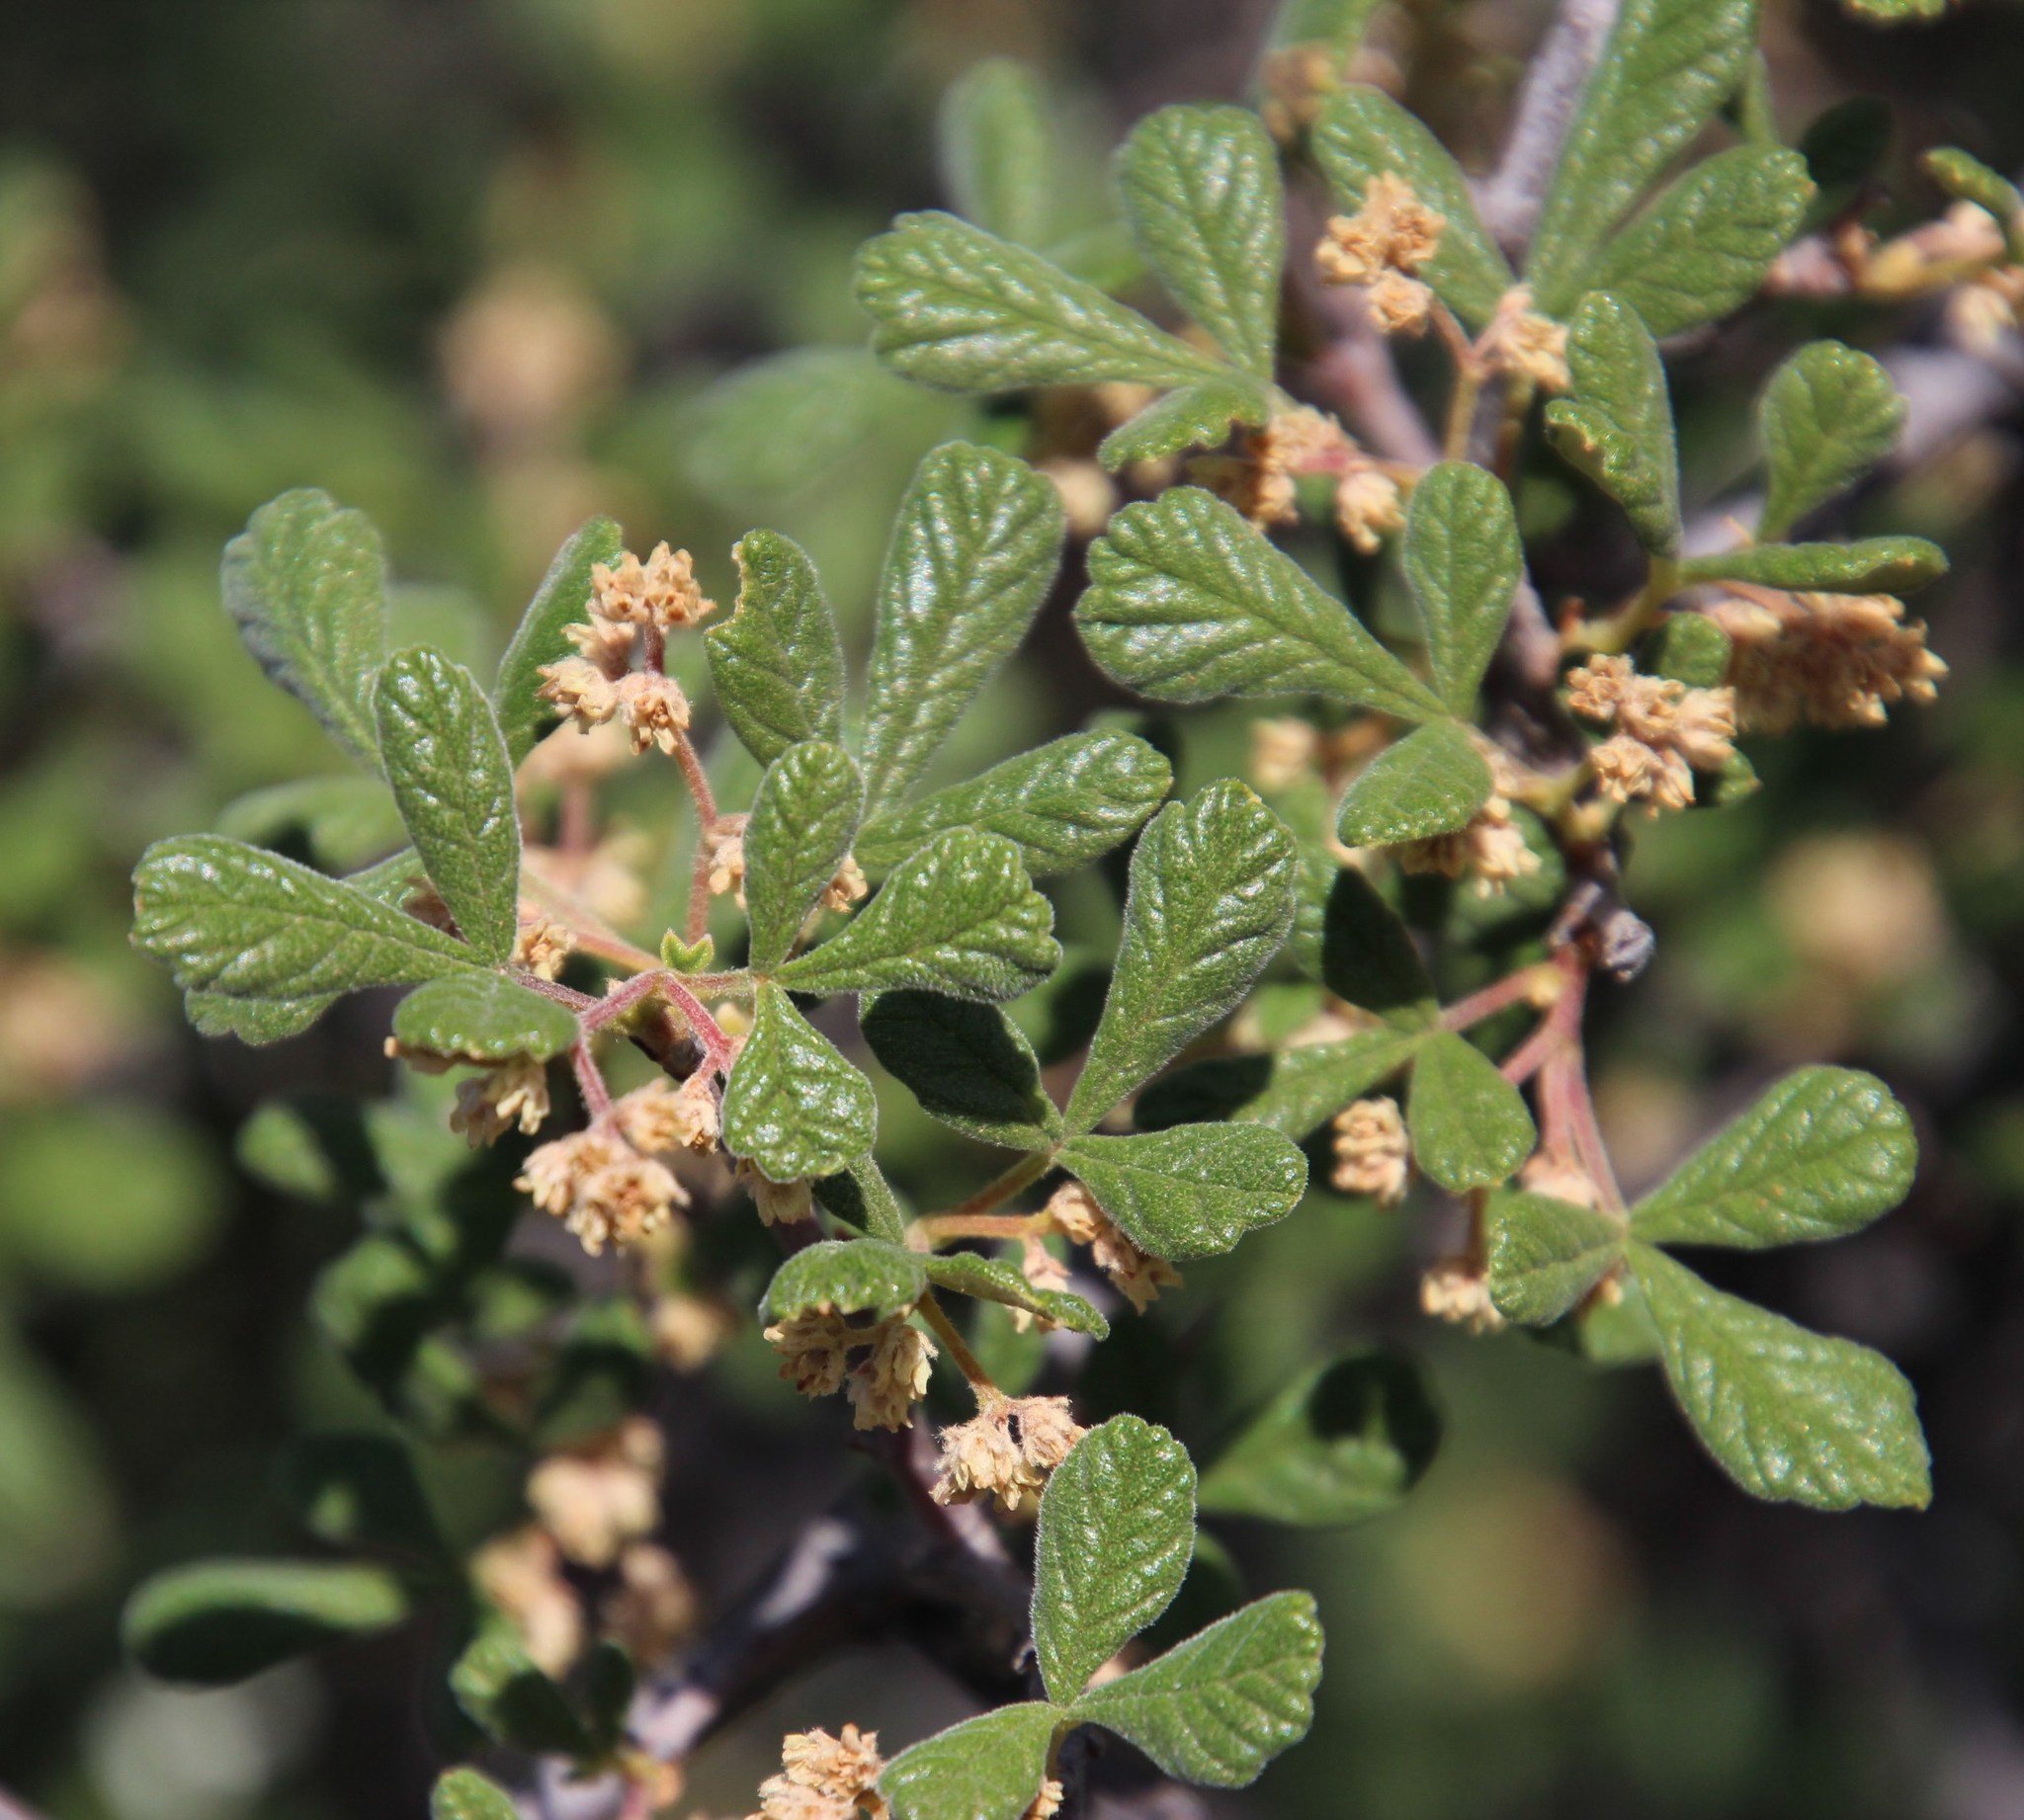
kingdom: Plantae
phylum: Tracheophyta
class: Magnoliopsida
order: Sapindales
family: Anacardiaceae
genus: Searsia
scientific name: Searsia incisa
